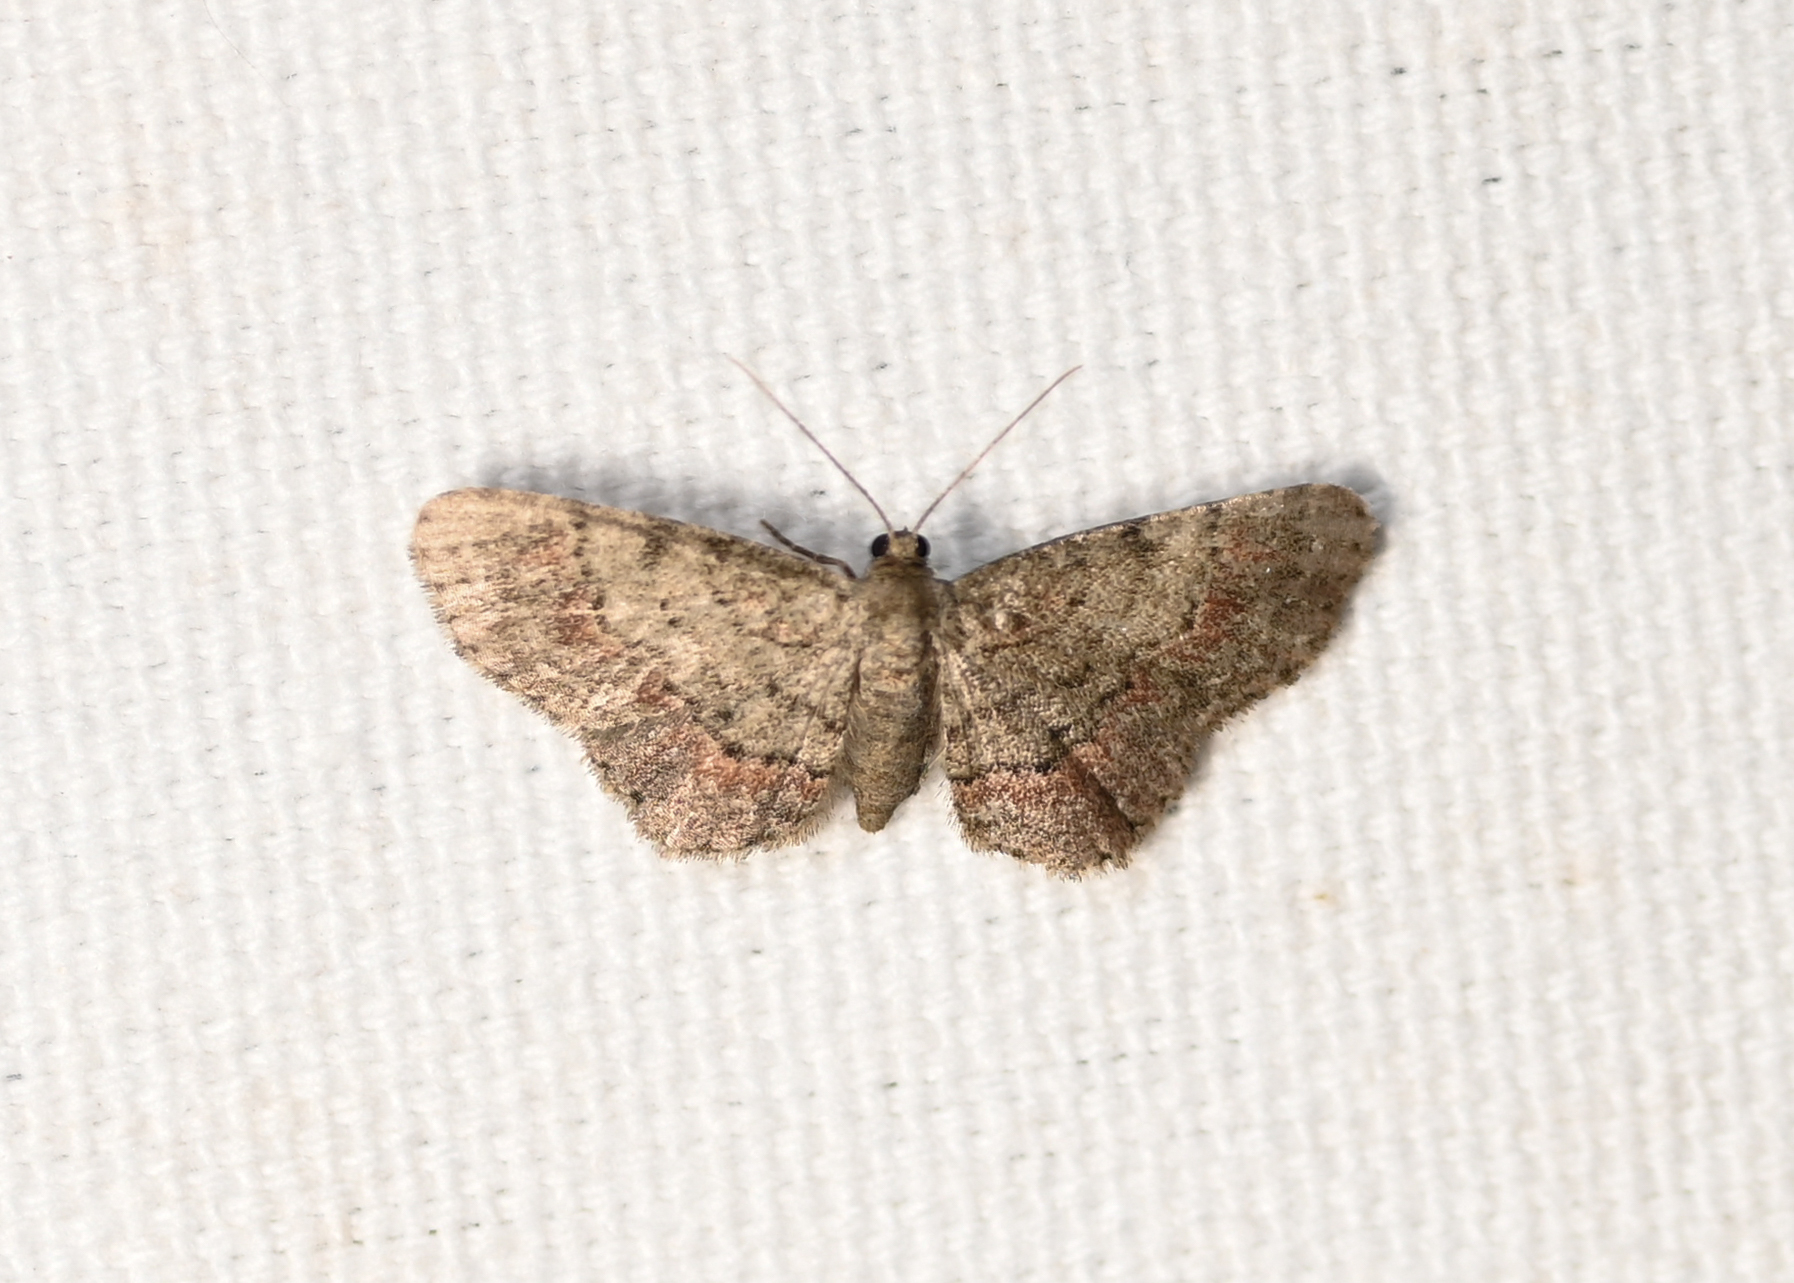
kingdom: Animalia
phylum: Arthropoda
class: Insecta
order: Lepidoptera
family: Geometridae
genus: Glenoides
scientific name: Glenoides texanaria
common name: Texas gray
